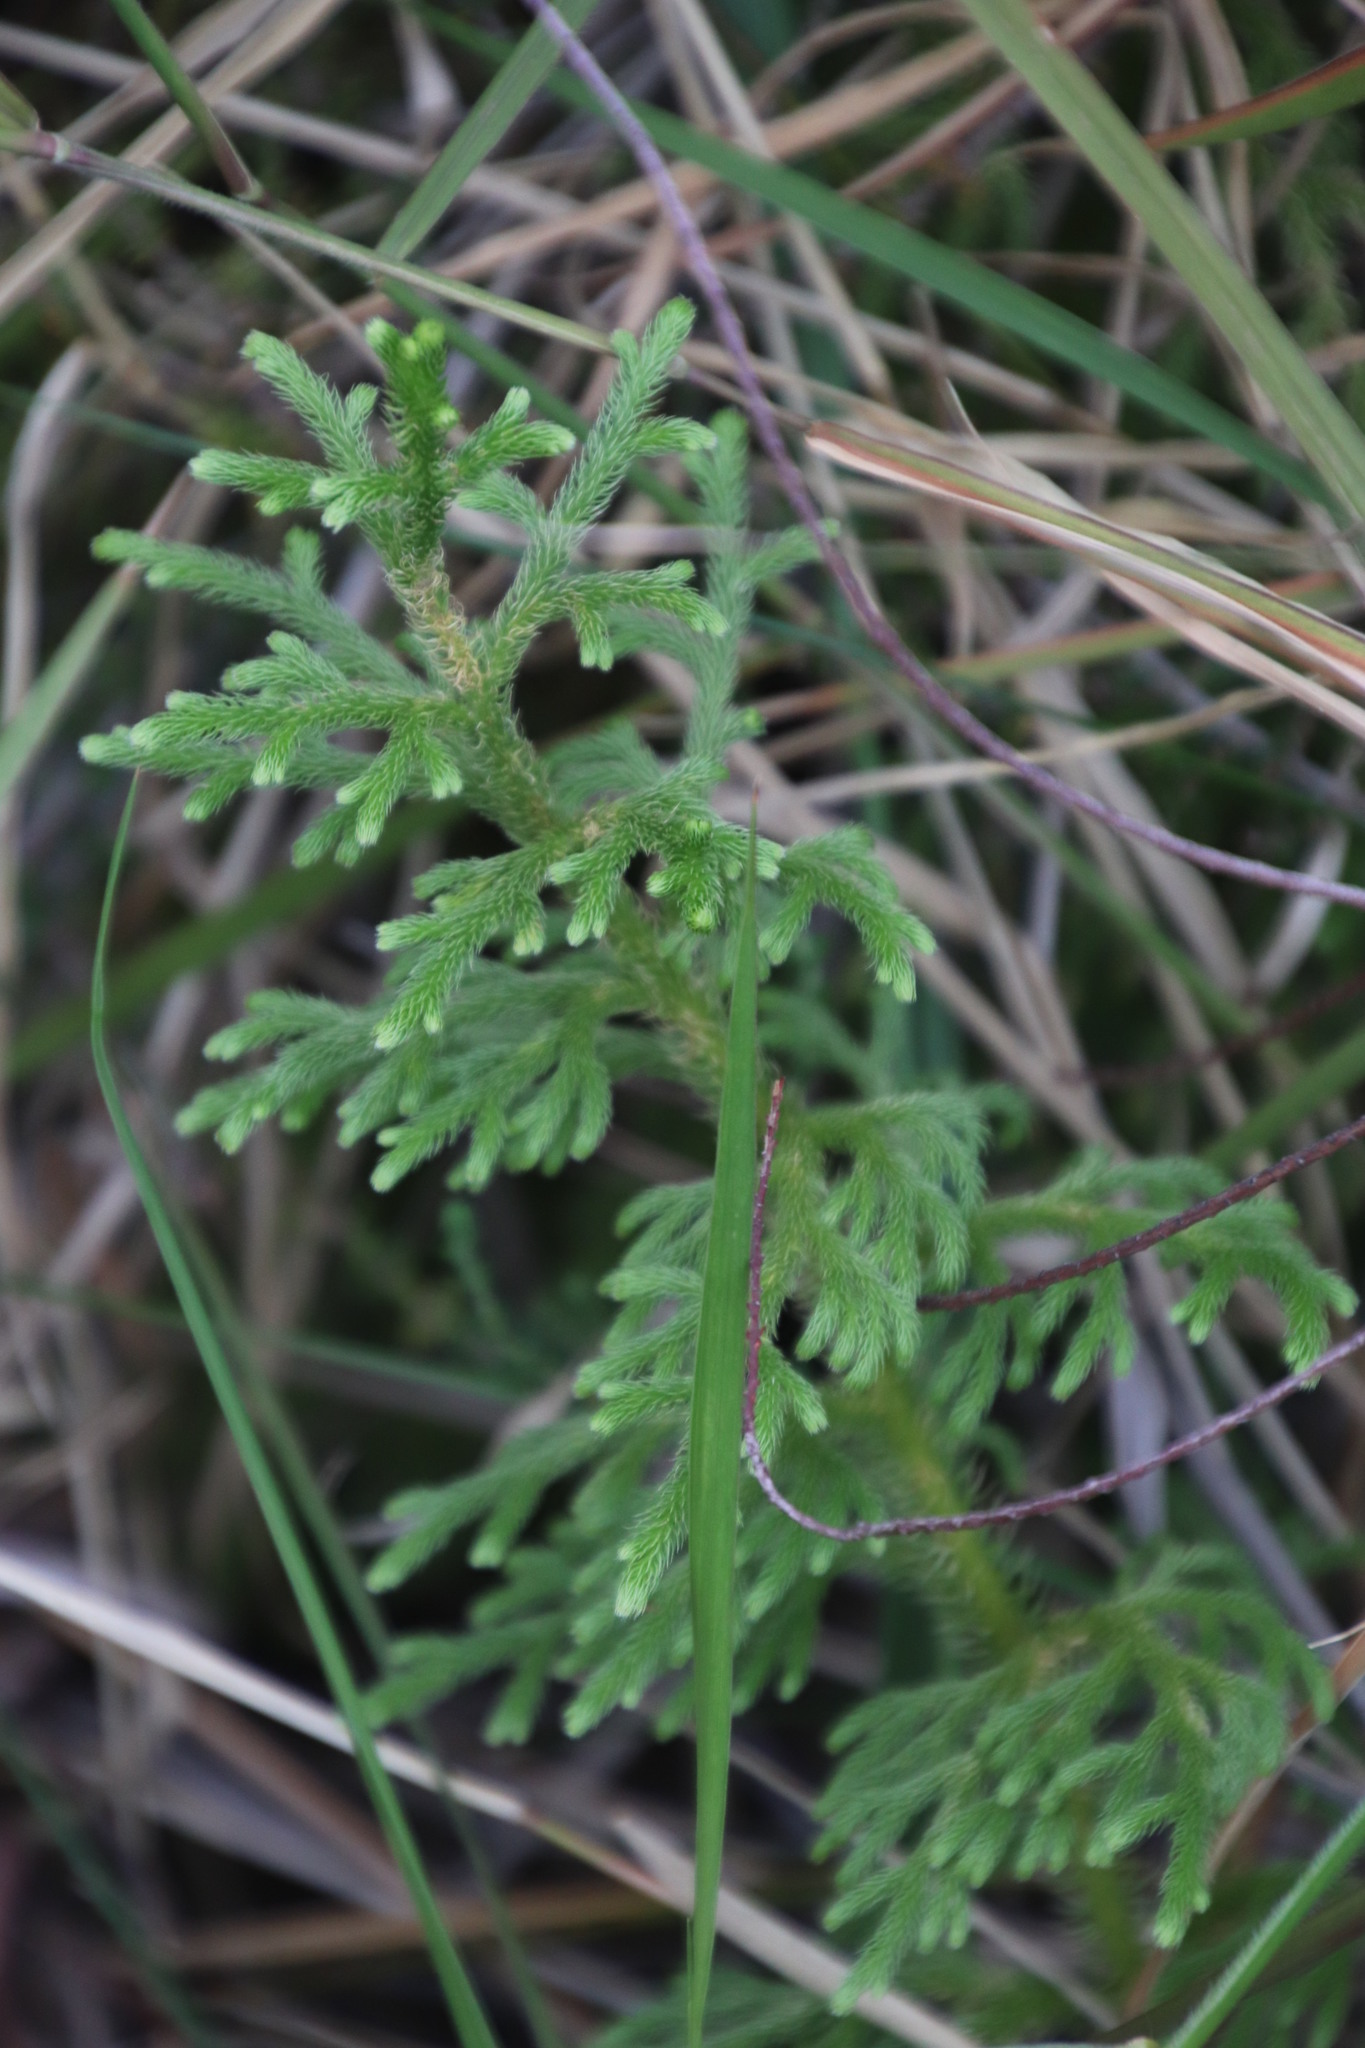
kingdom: Plantae
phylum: Tracheophyta
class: Lycopodiopsida
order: Lycopodiales
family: Lycopodiaceae
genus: Palhinhaea
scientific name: Palhinhaea cernua
